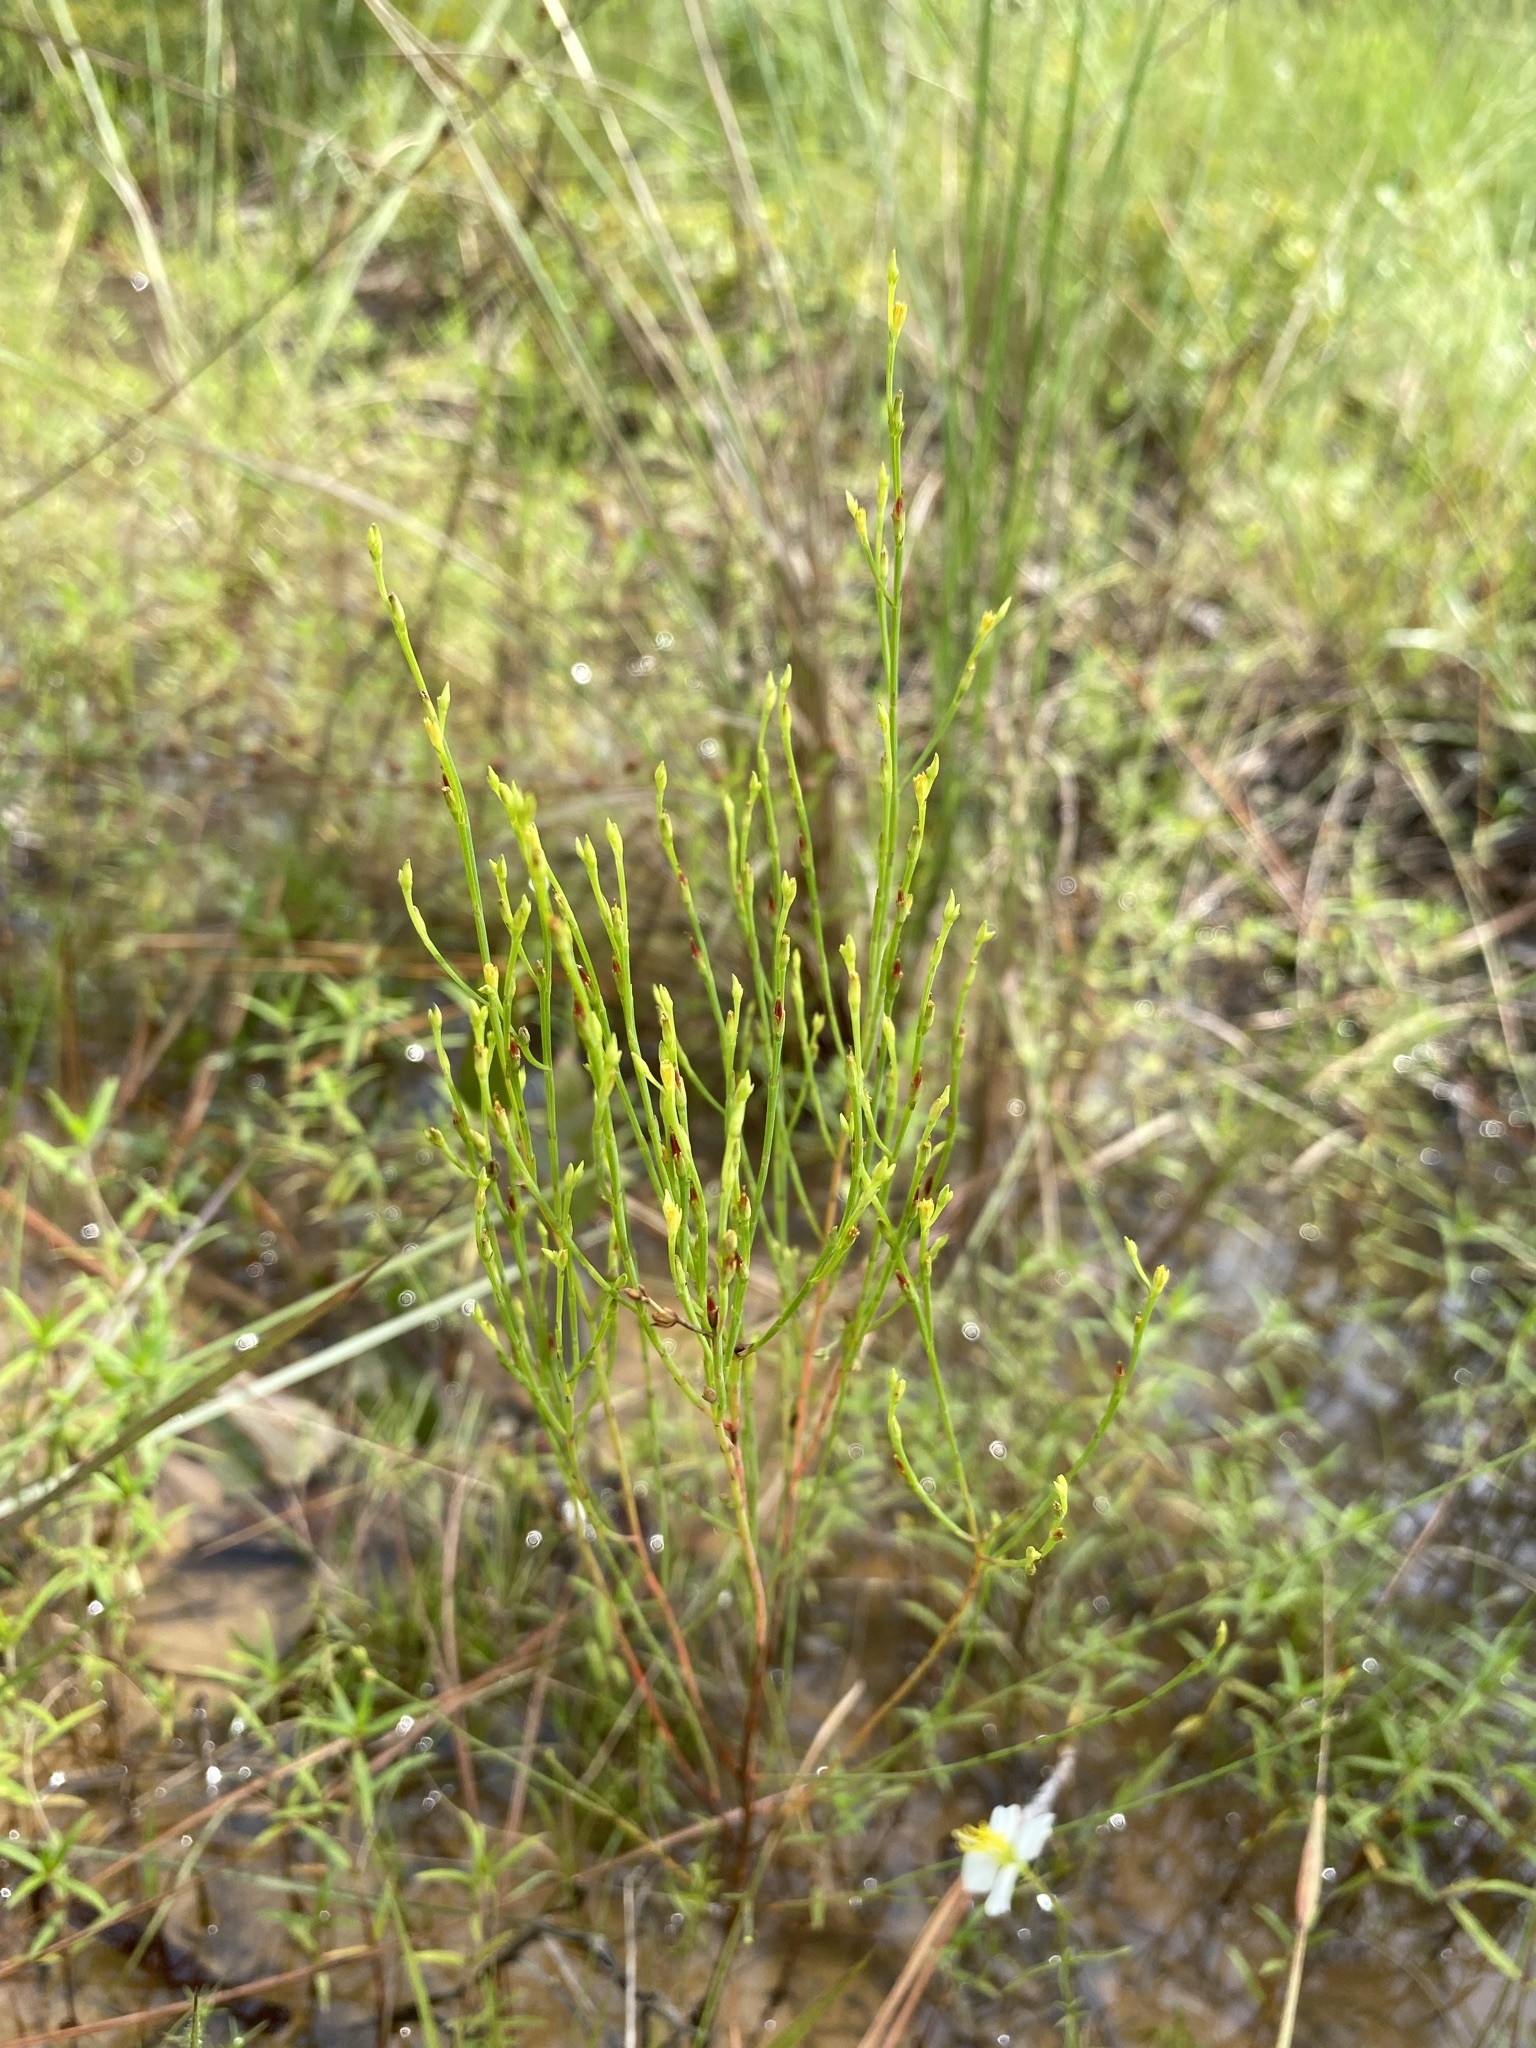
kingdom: Plantae
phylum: Tracheophyta
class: Magnoliopsida
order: Malpighiales
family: Hypericaceae
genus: Hypericum
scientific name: Hypericum gentianoides
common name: Gentian-leaved st. john's-wort
